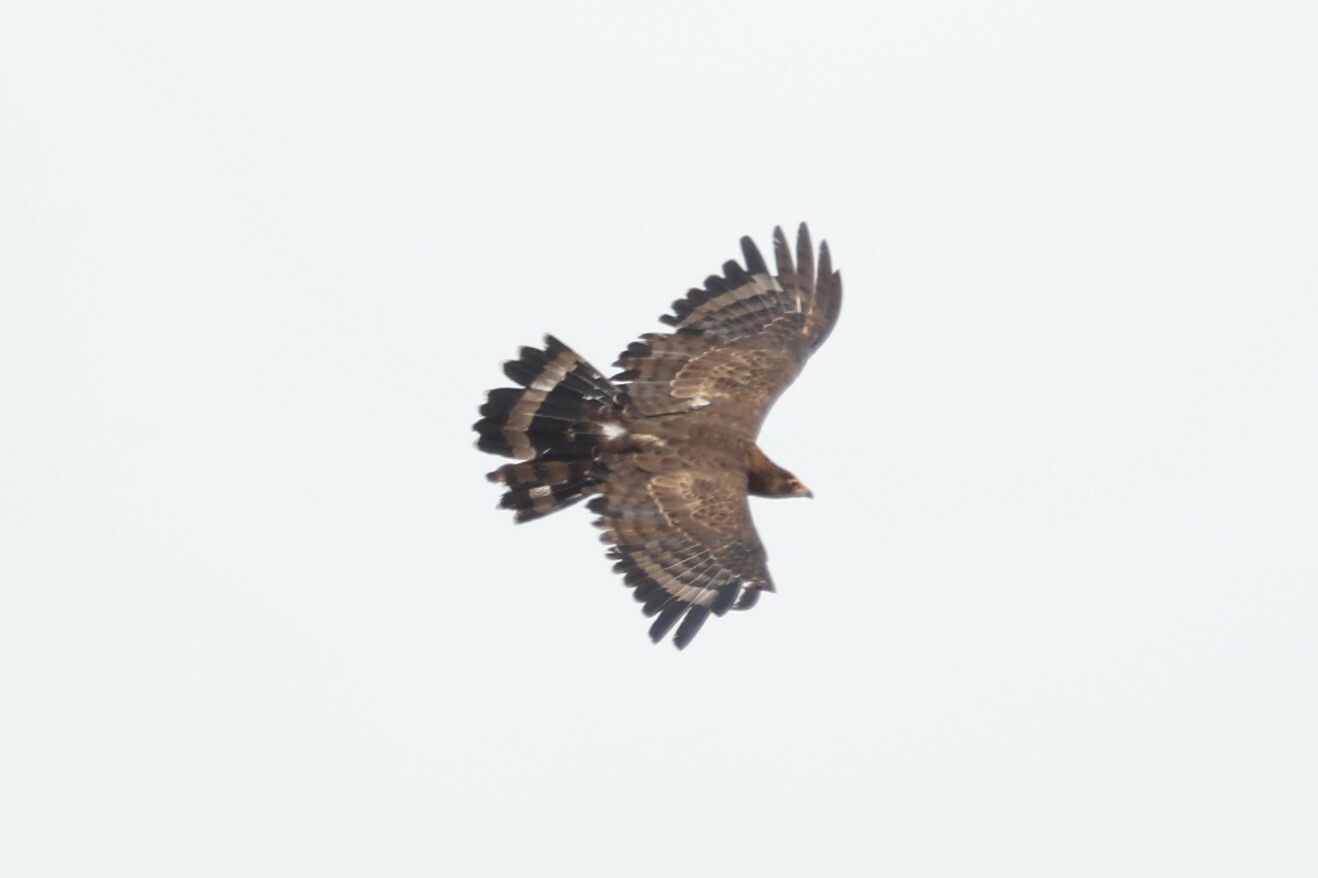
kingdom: Animalia
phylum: Chordata
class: Aves
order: Accipitriformes
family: Accipitridae
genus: Polyboroides
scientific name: Polyboroides typus
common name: African harrier-hawk
